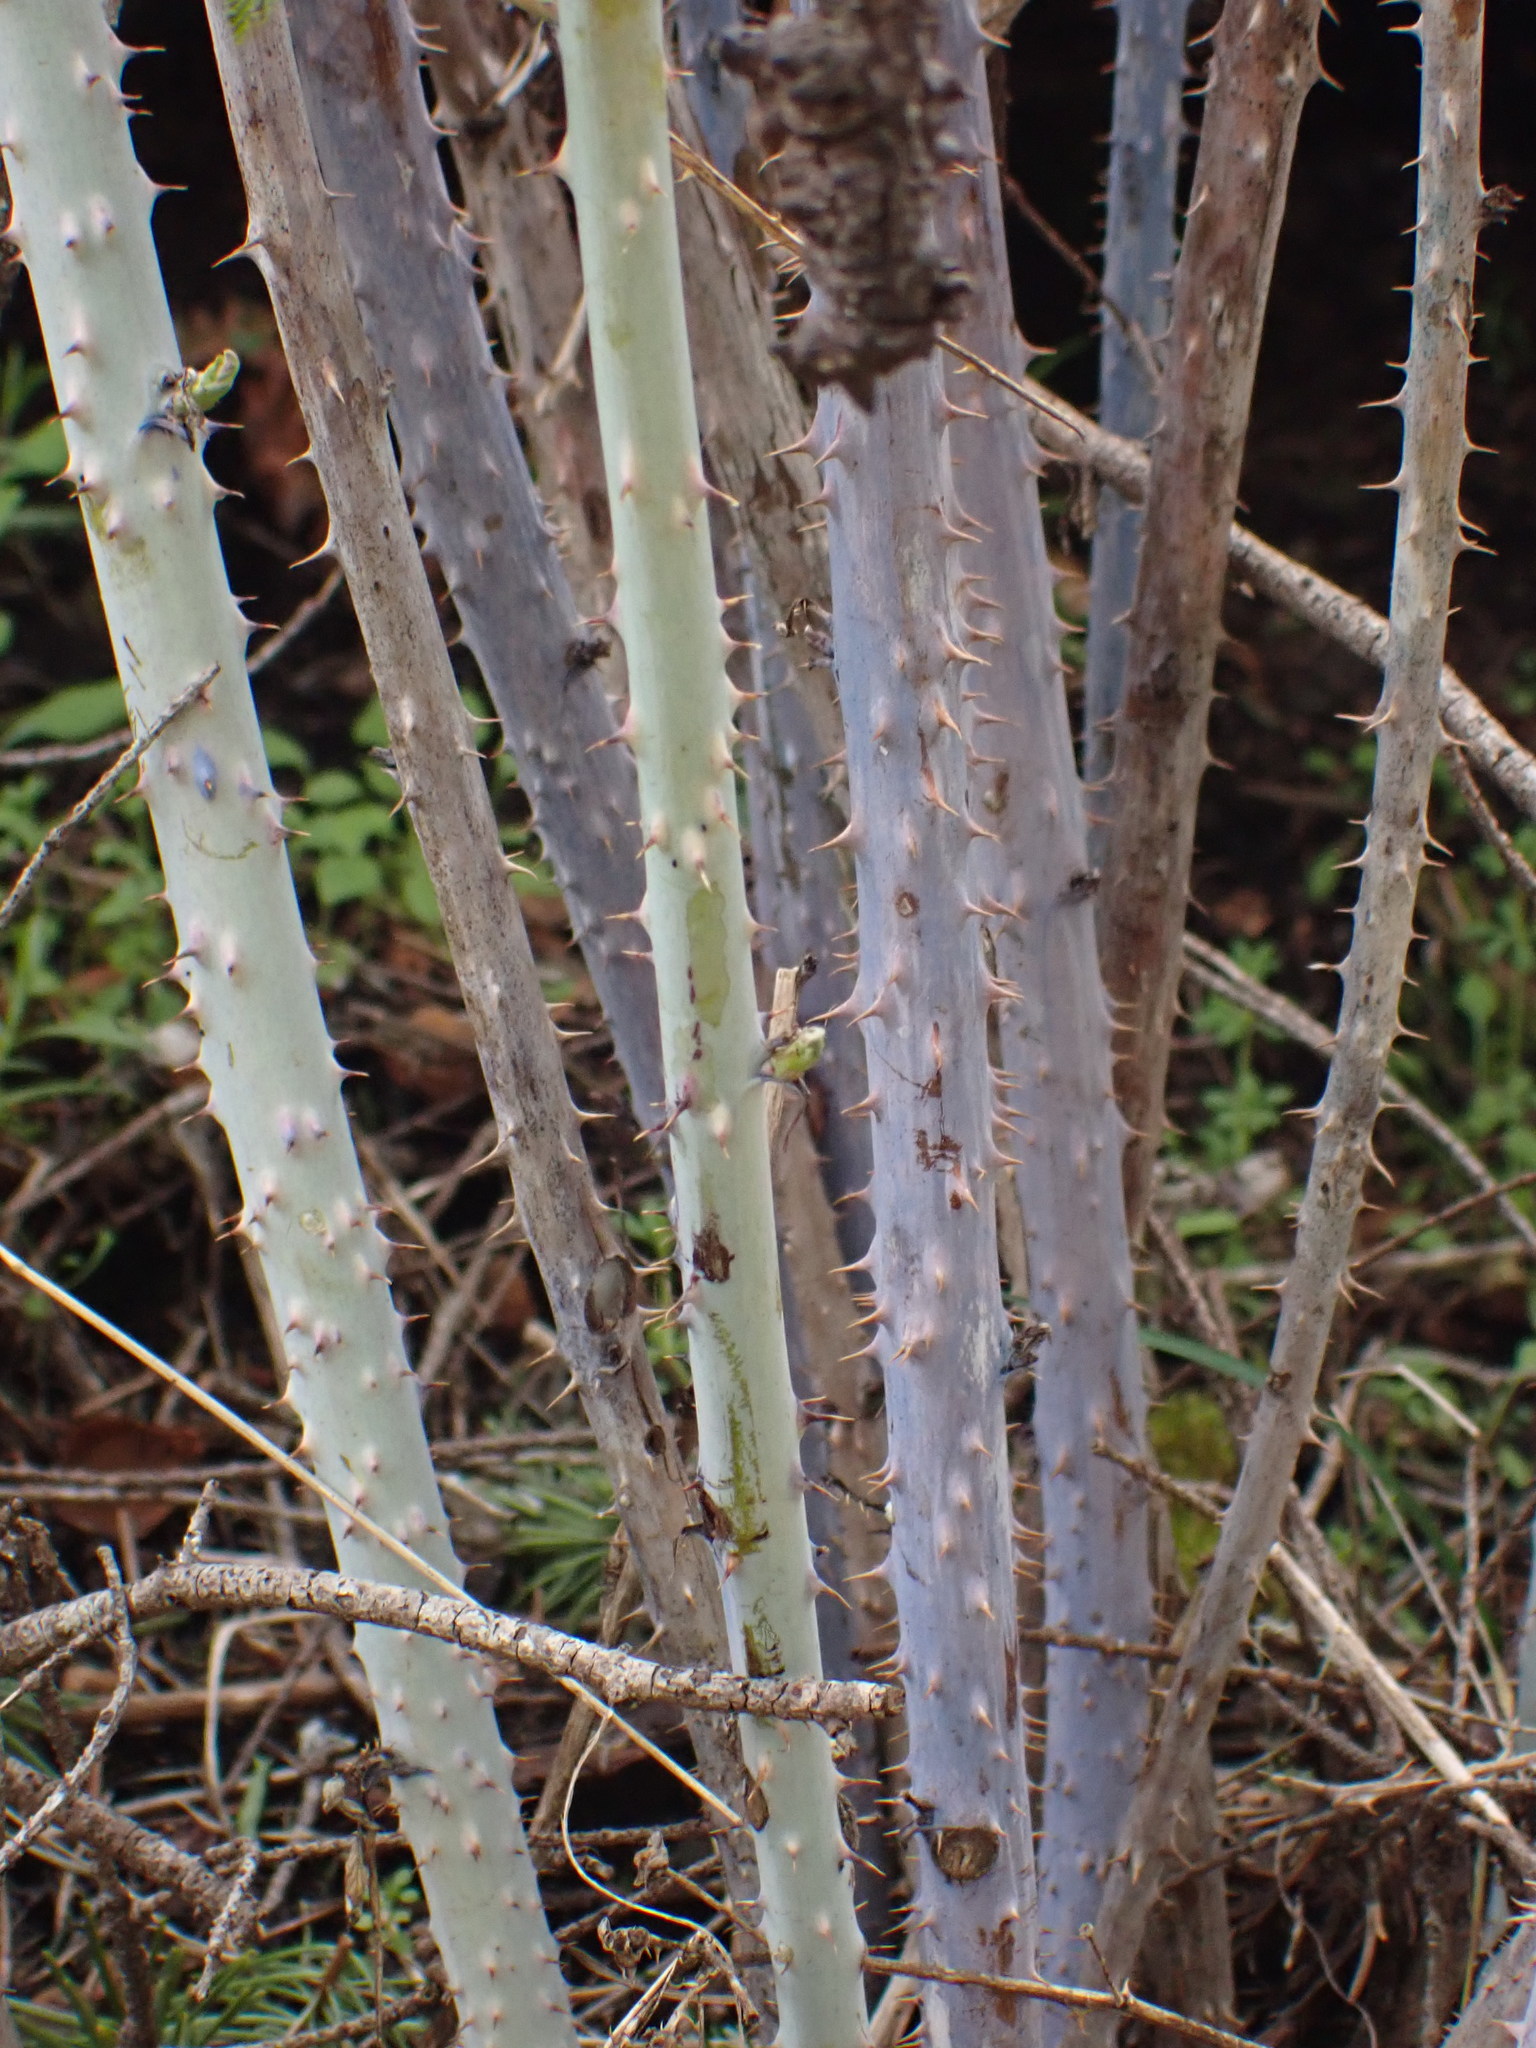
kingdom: Plantae
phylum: Tracheophyta
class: Magnoliopsida
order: Rosales
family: Rosaceae
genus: Rubus
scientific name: Rubus leucodermis
